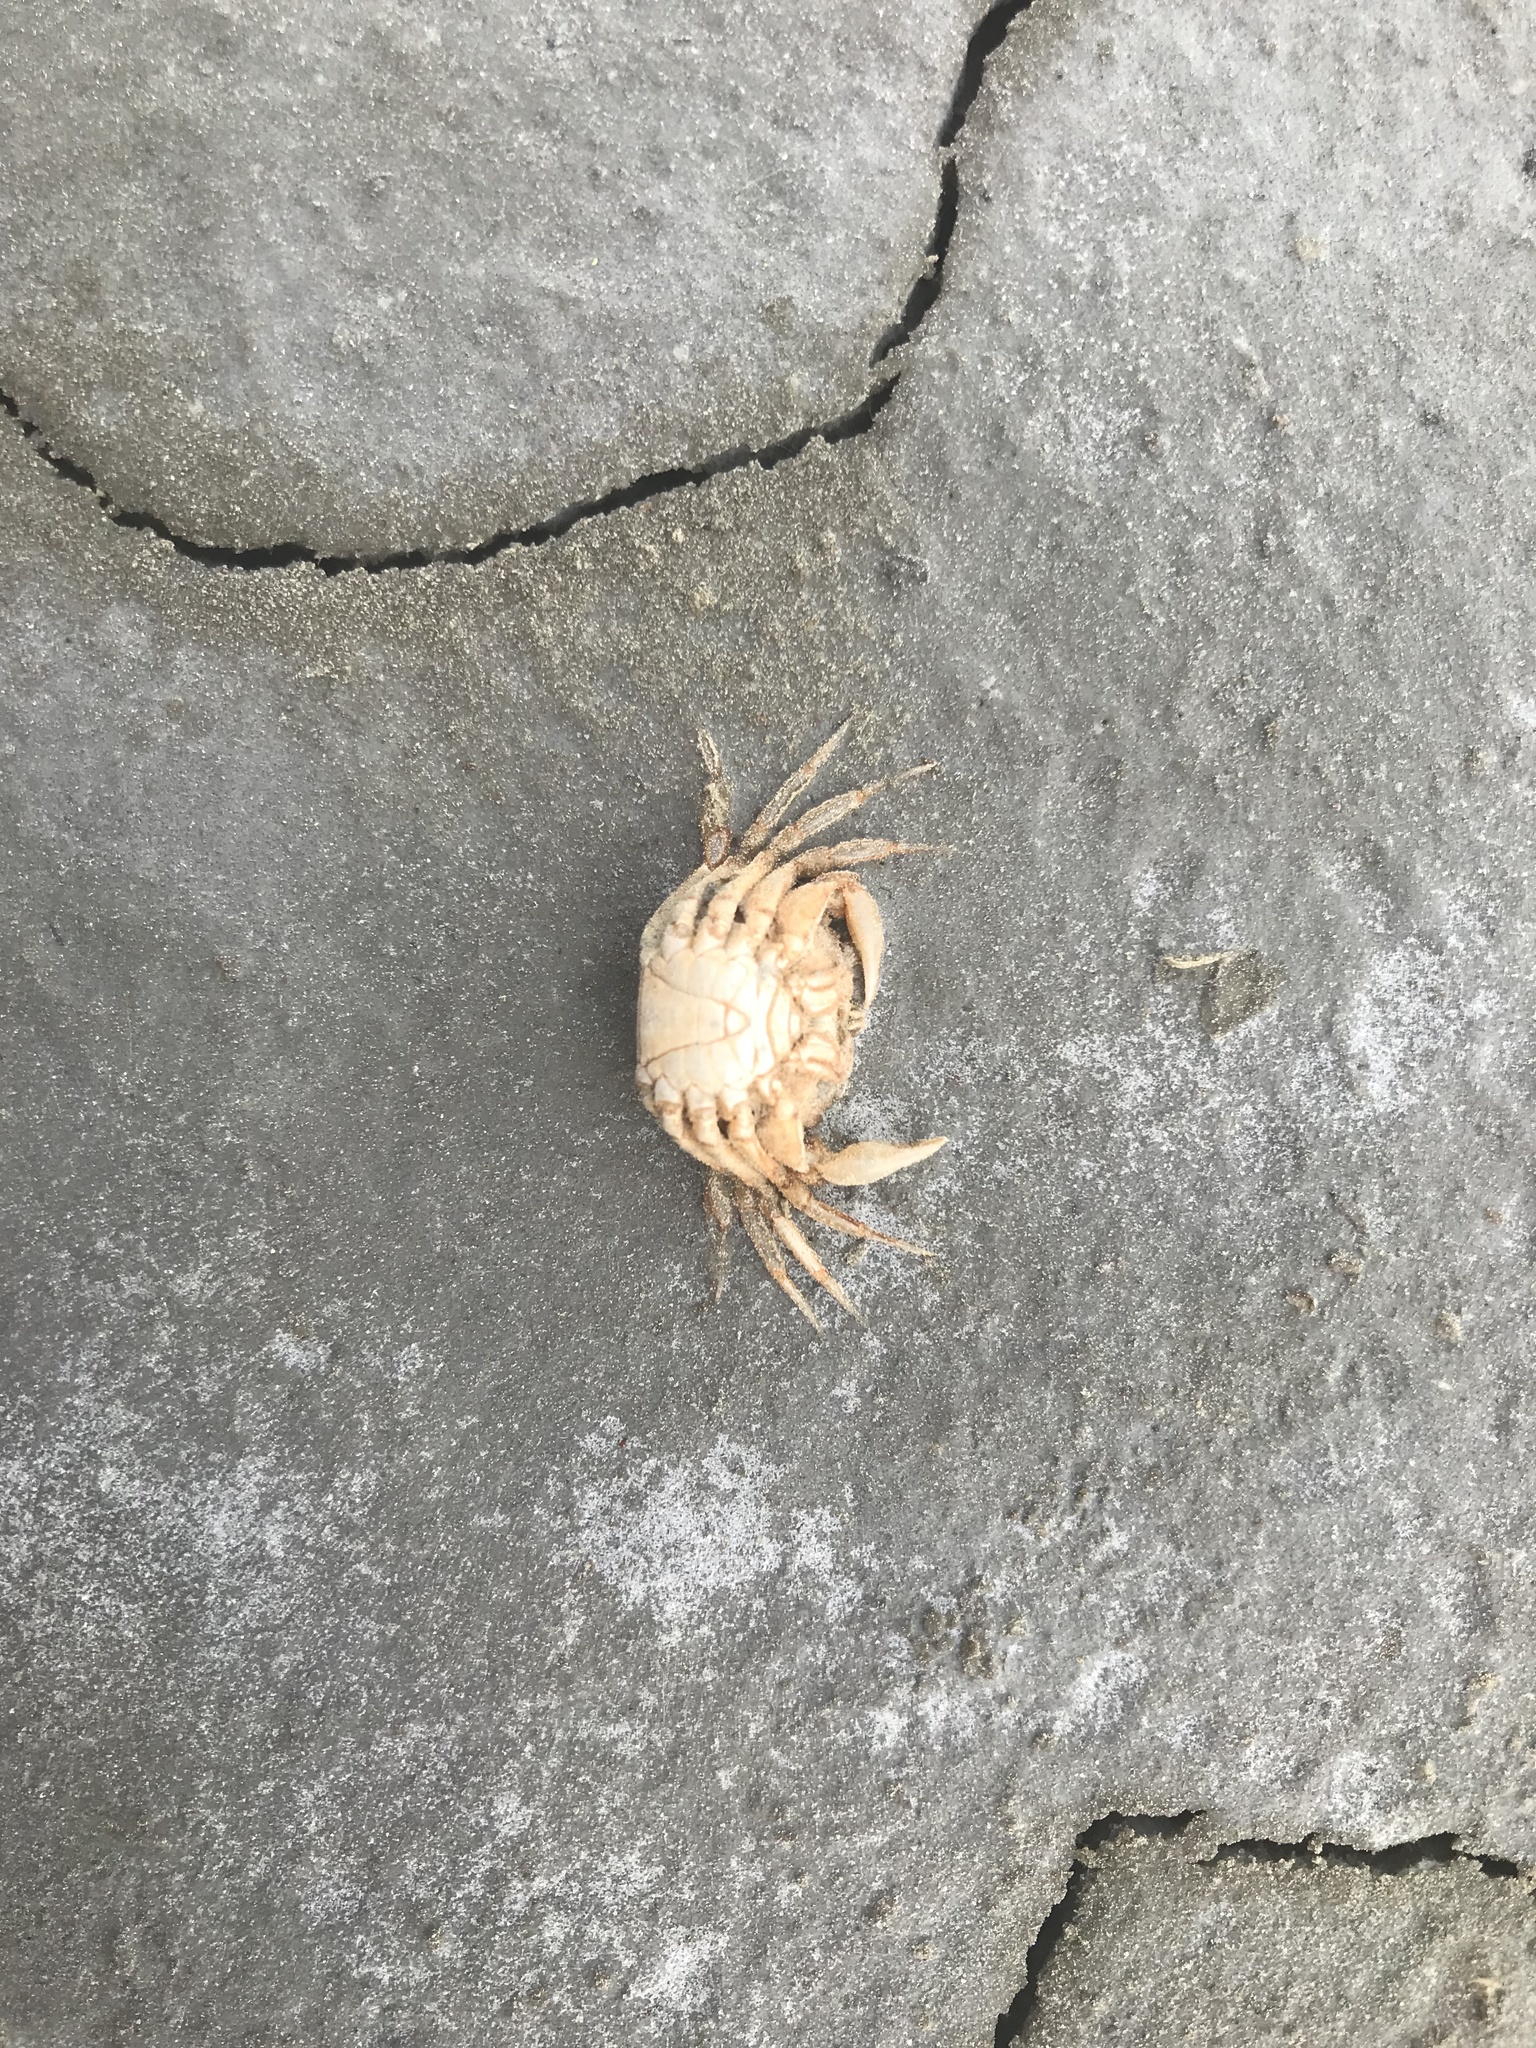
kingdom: Animalia
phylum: Arthropoda
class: Malacostraca
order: Decapoda
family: Carcinidae
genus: Carcinus
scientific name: Carcinus maenas
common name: European green crab
